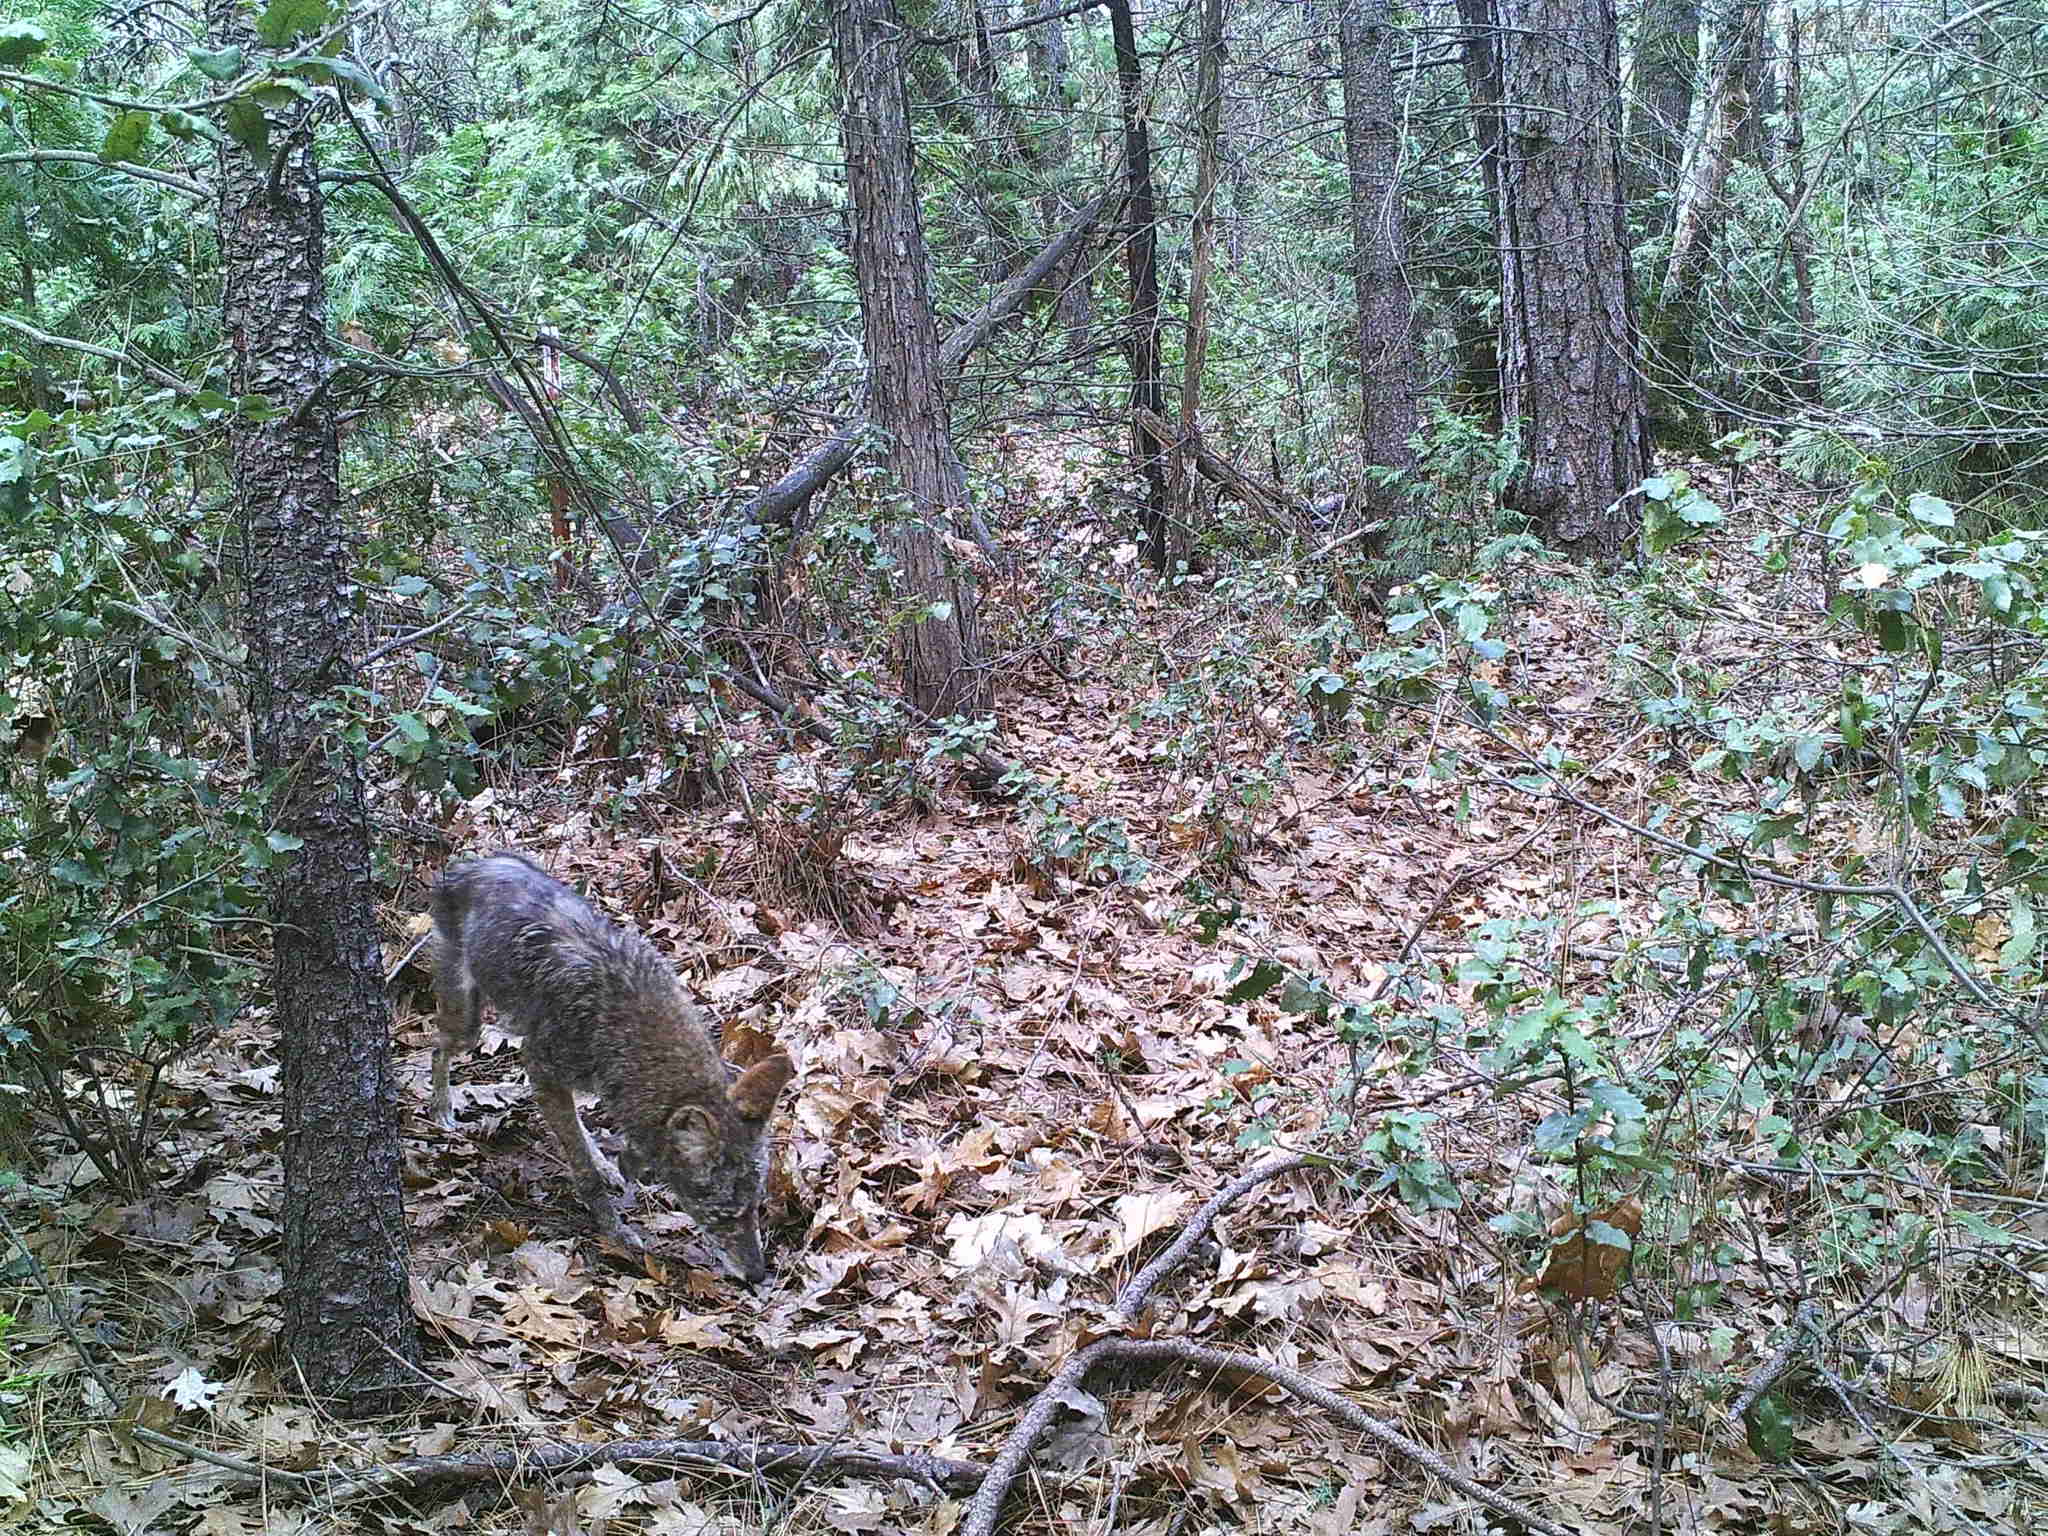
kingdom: Animalia
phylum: Chordata
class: Mammalia
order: Carnivora
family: Canidae
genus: Canis
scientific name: Canis latrans
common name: Coyote
